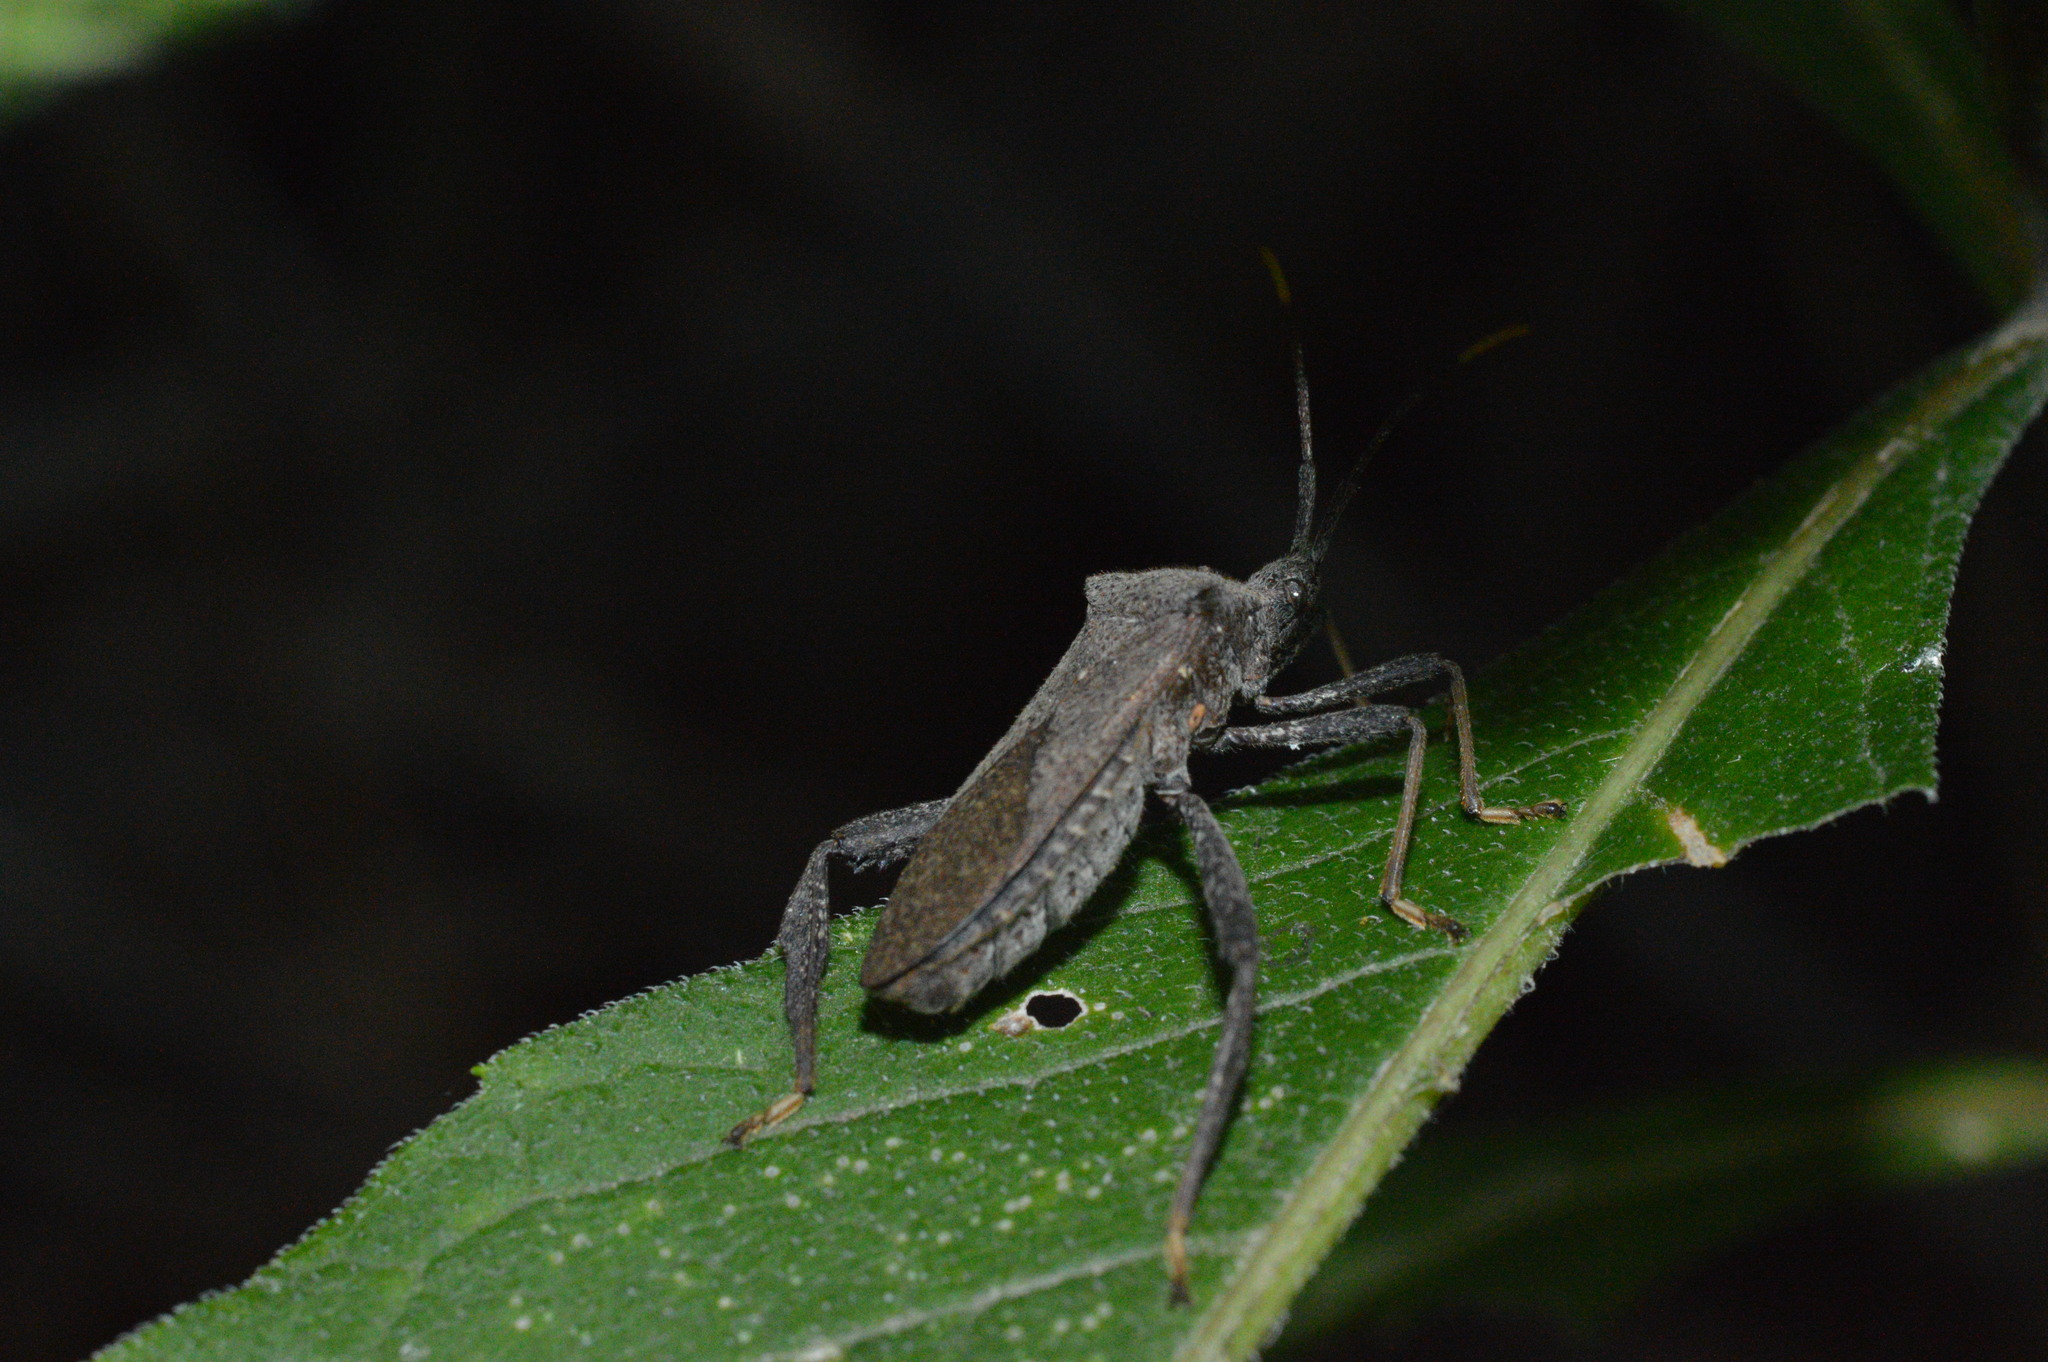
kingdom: Animalia
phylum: Arthropoda
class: Insecta
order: Hemiptera
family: Coreidae
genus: Acanthocephala
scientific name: Acanthocephala terminalis
